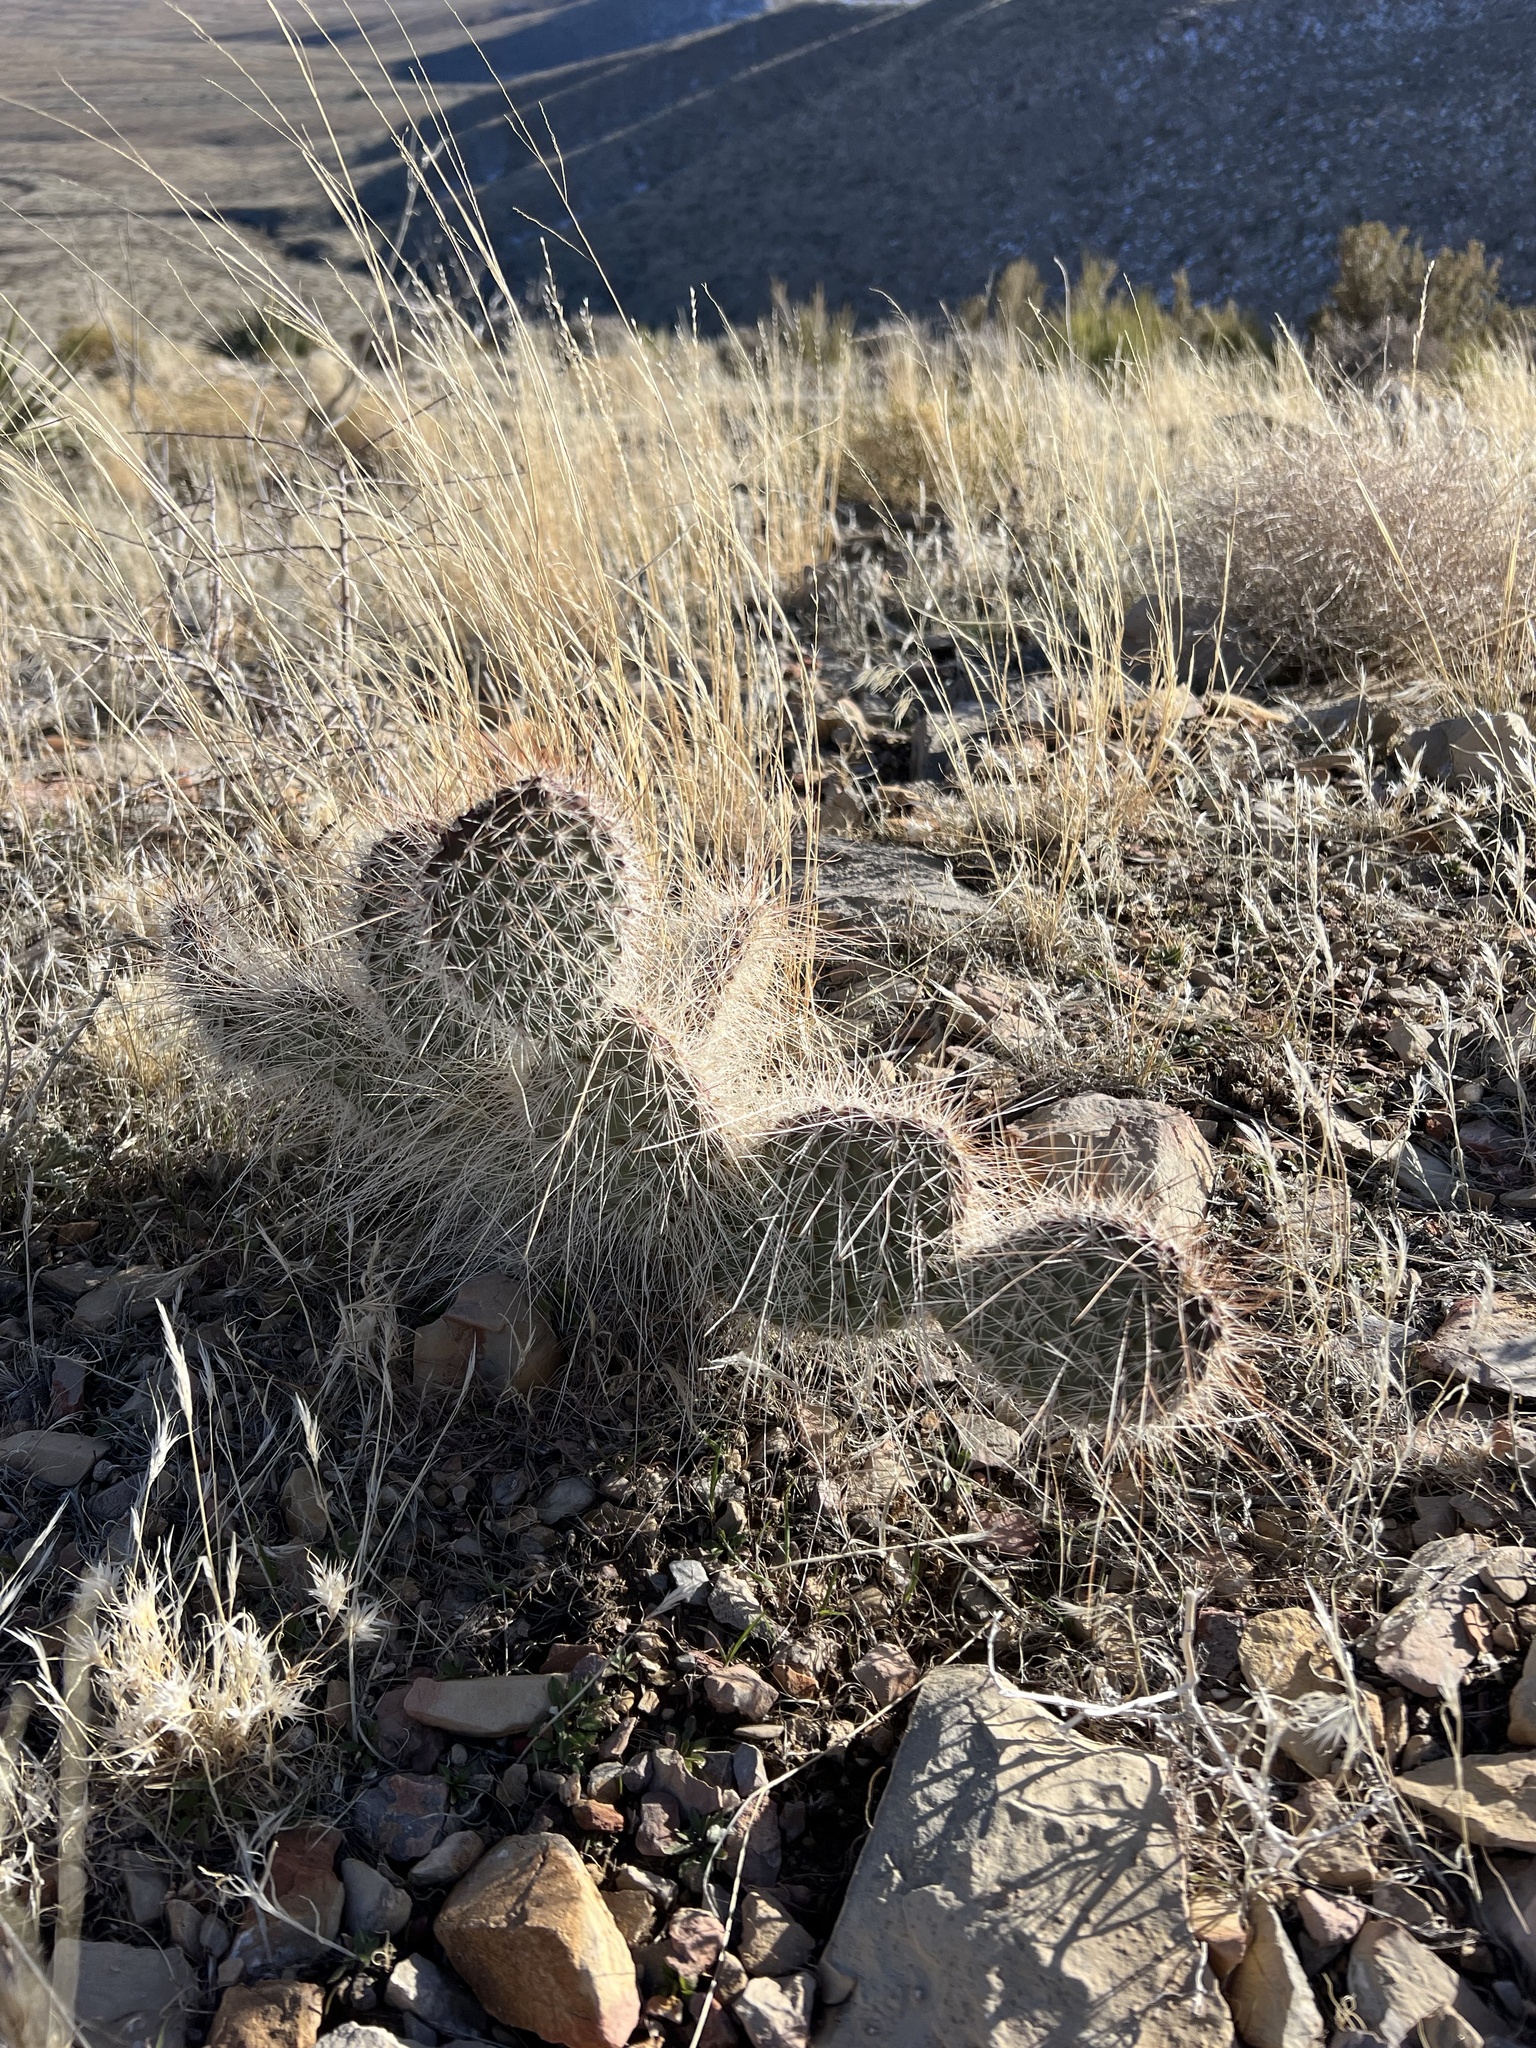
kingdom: Plantae
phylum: Tracheophyta
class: Magnoliopsida
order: Caryophyllales
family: Cactaceae
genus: Opuntia
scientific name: Opuntia polyacantha
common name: Plains prickly-pear
